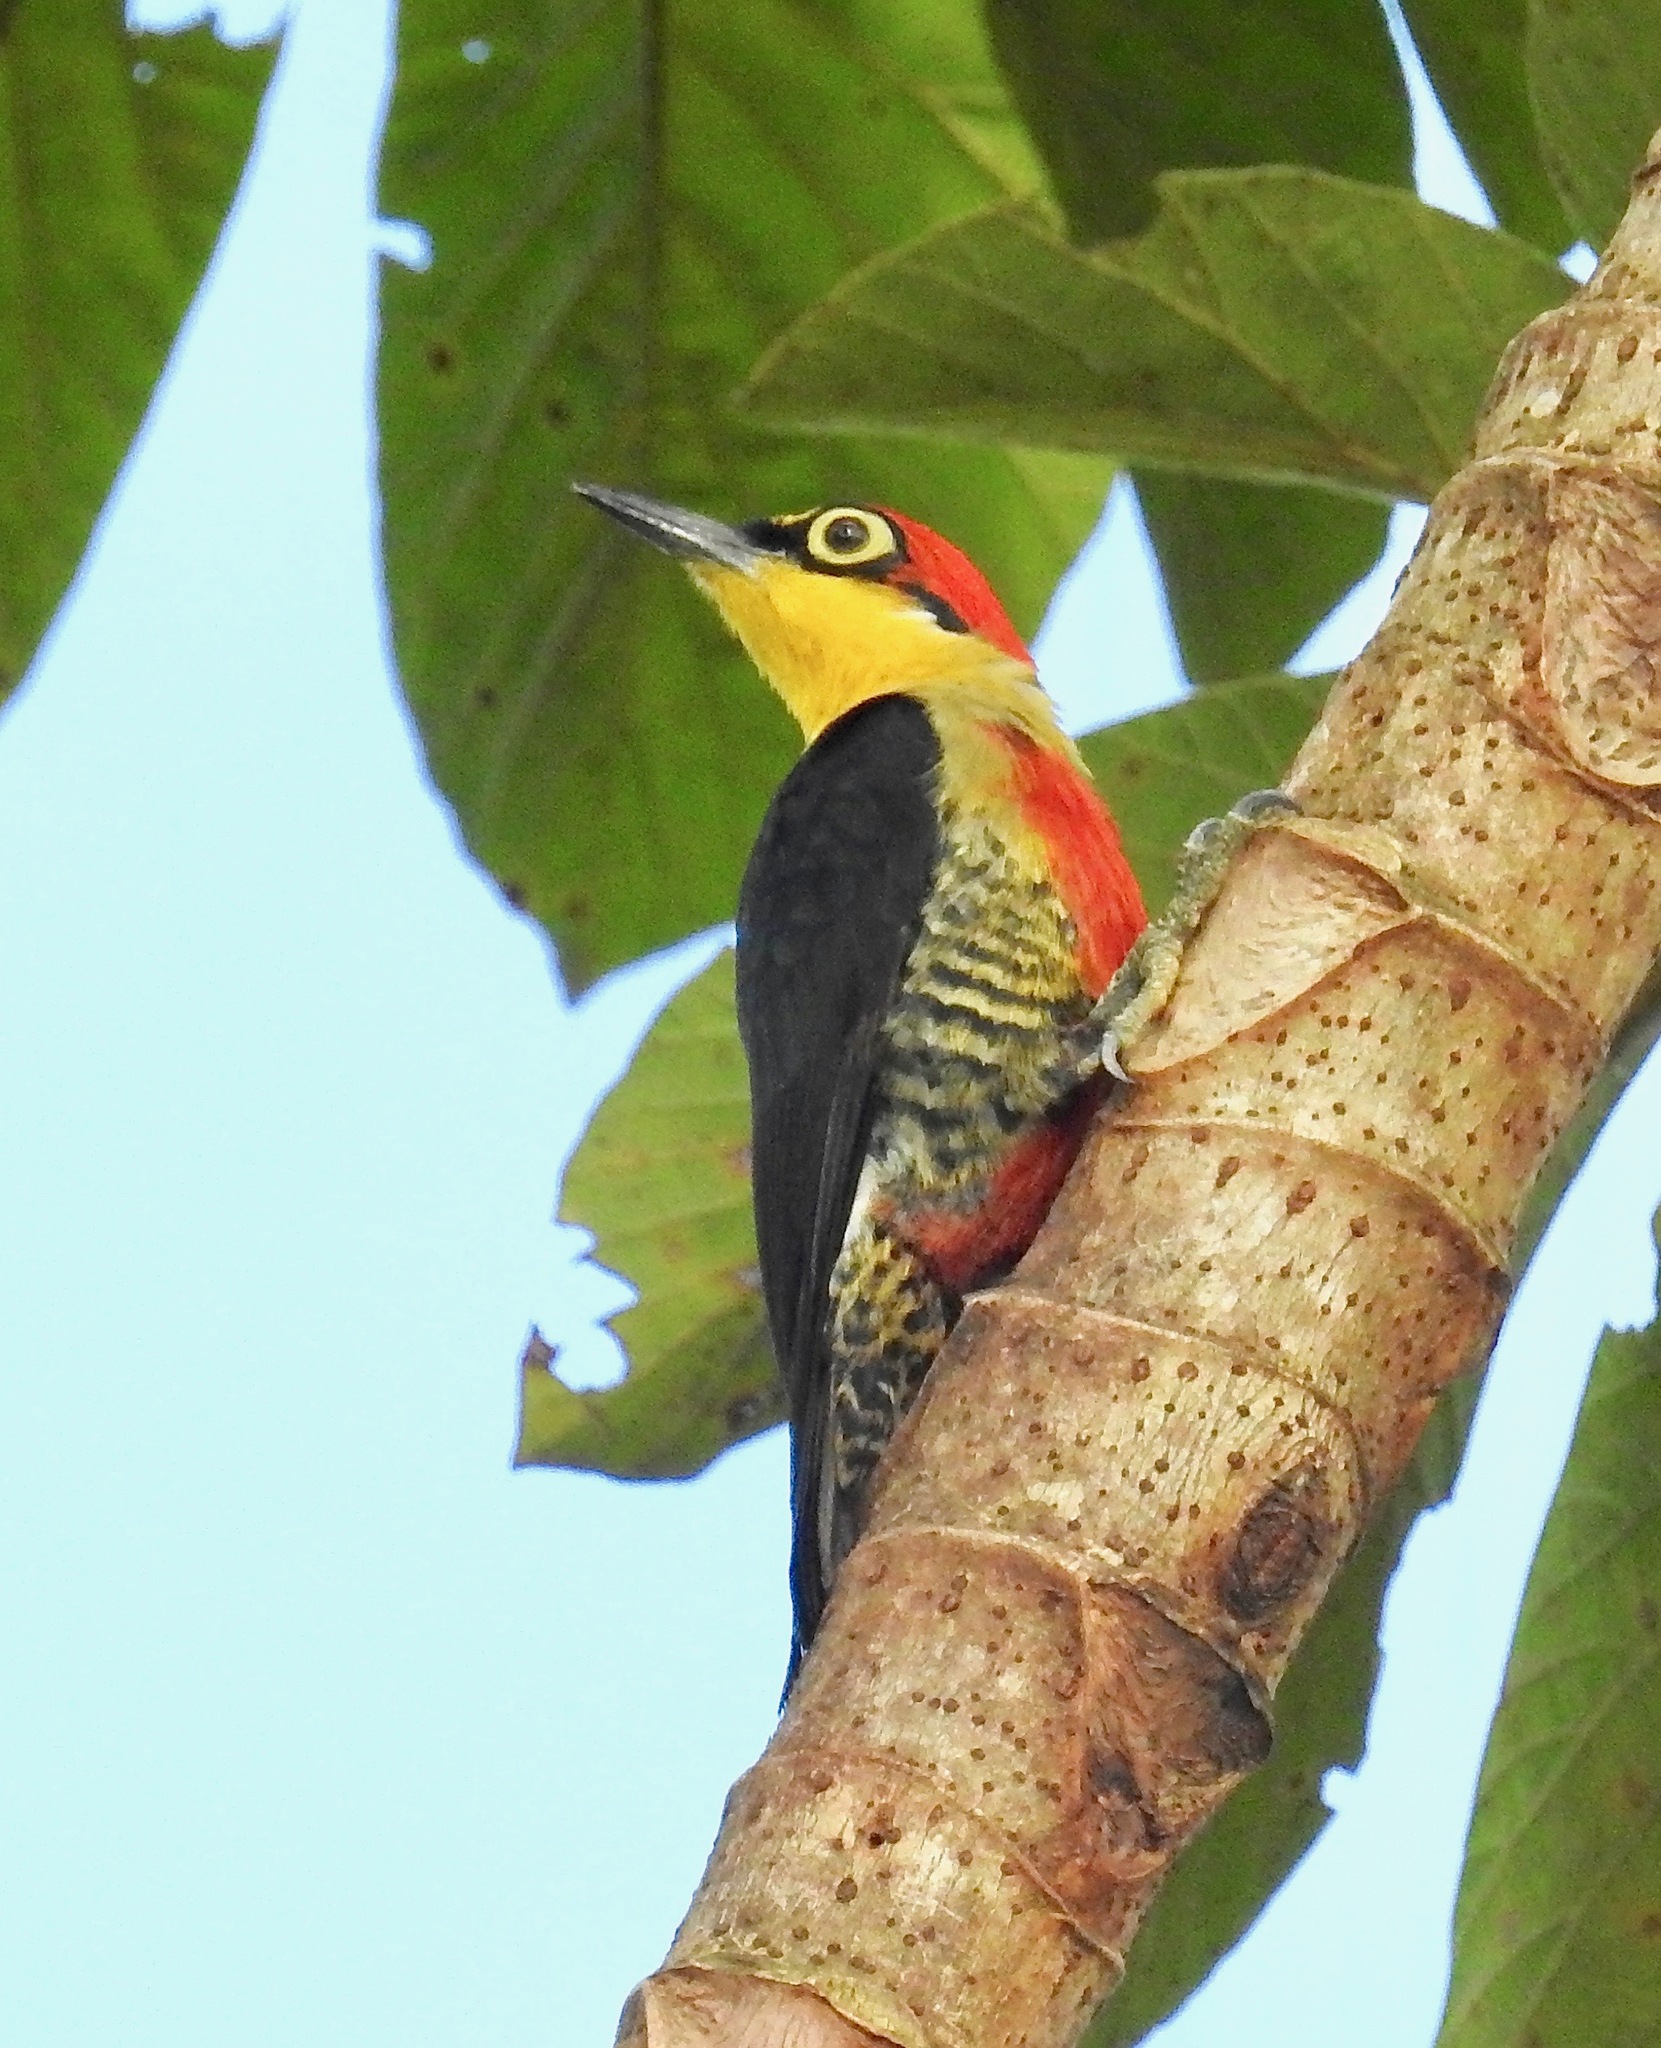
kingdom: Animalia
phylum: Chordata
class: Aves
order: Piciformes
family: Picidae
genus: Melanerpes
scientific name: Melanerpes flavifrons
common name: Yellow-fronted woodpecker
